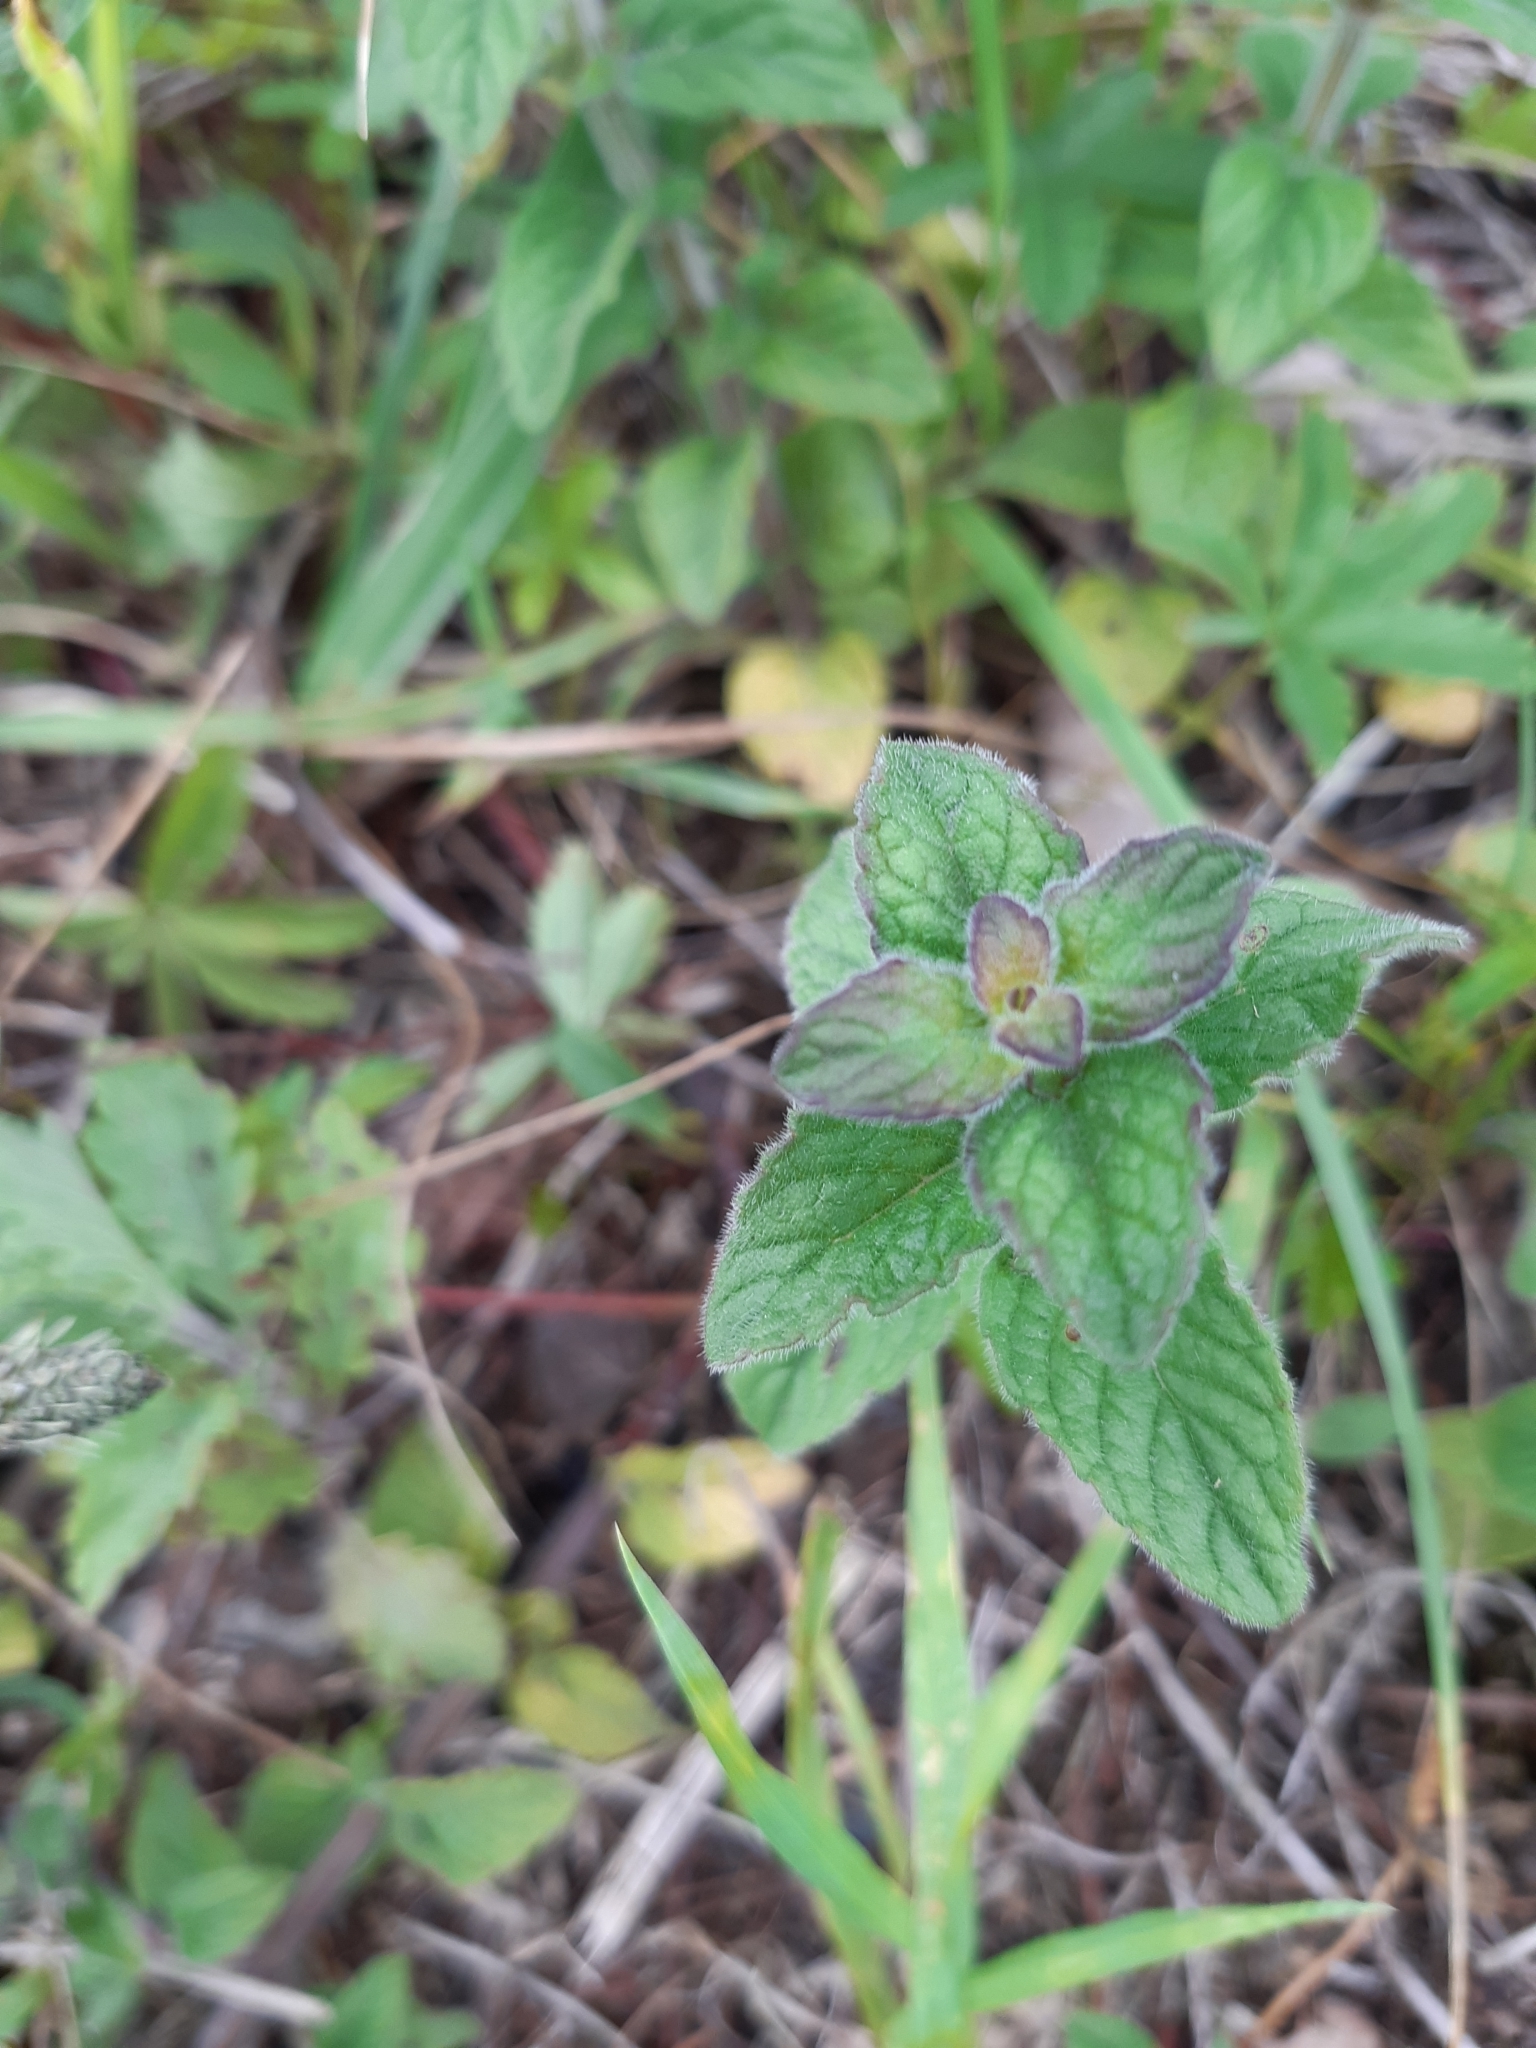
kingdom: Plantae
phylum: Tracheophyta
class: Magnoliopsida
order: Lamiales
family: Lamiaceae
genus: Clinopodium
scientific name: Clinopodium vulgare
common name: Wild basil
